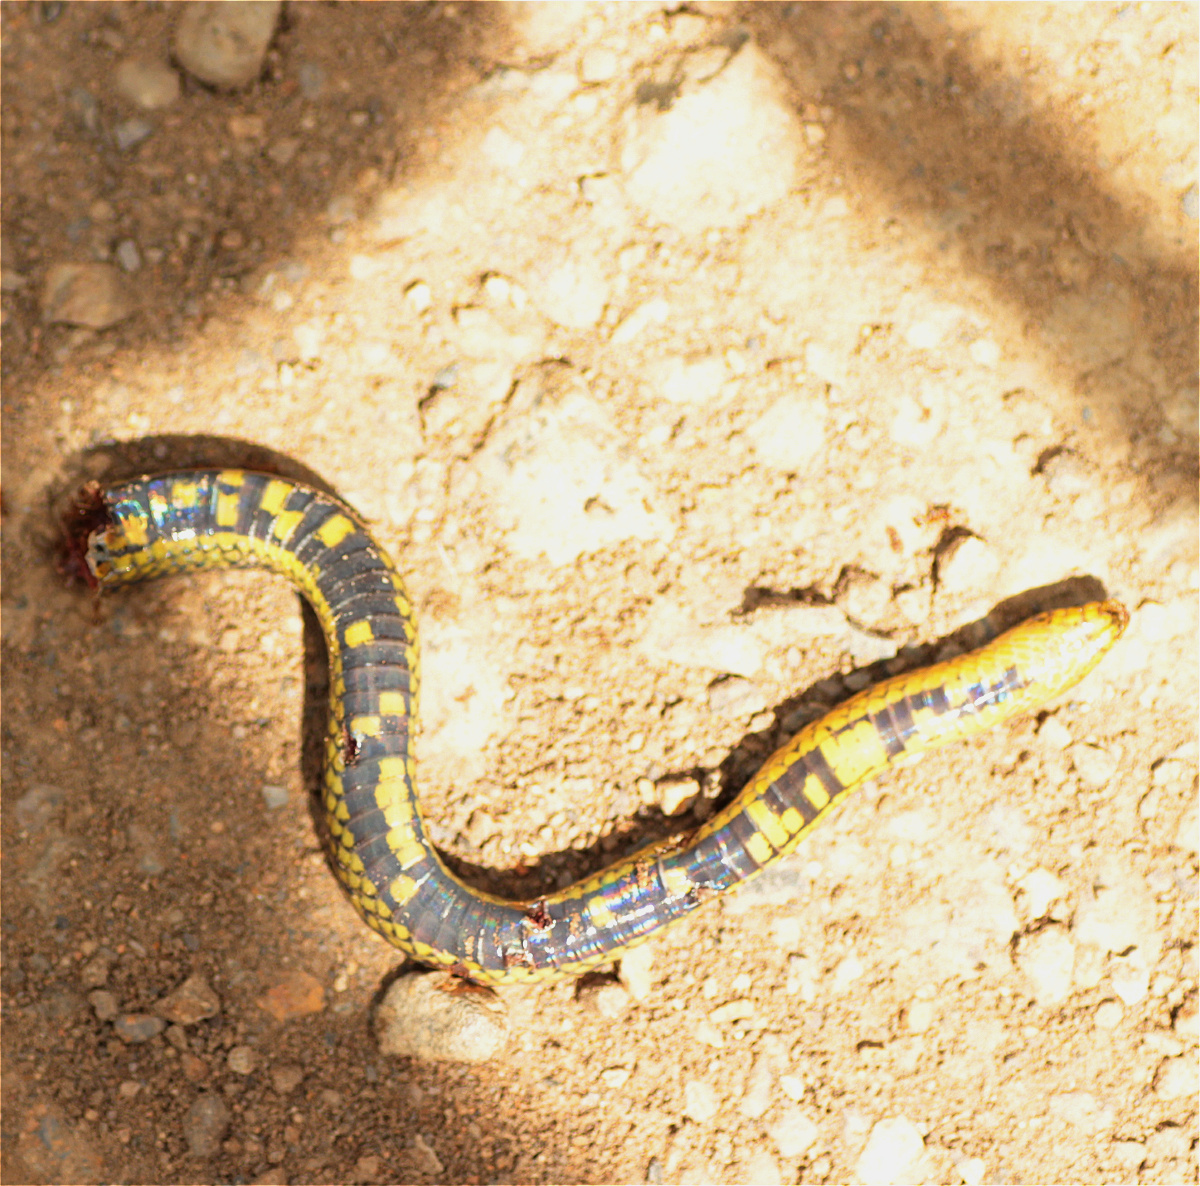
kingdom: Animalia
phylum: Chordata
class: Squamata
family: Colubridae
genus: Atractus
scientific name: Atractus crassicaudatus
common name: Thickhead ground snake
